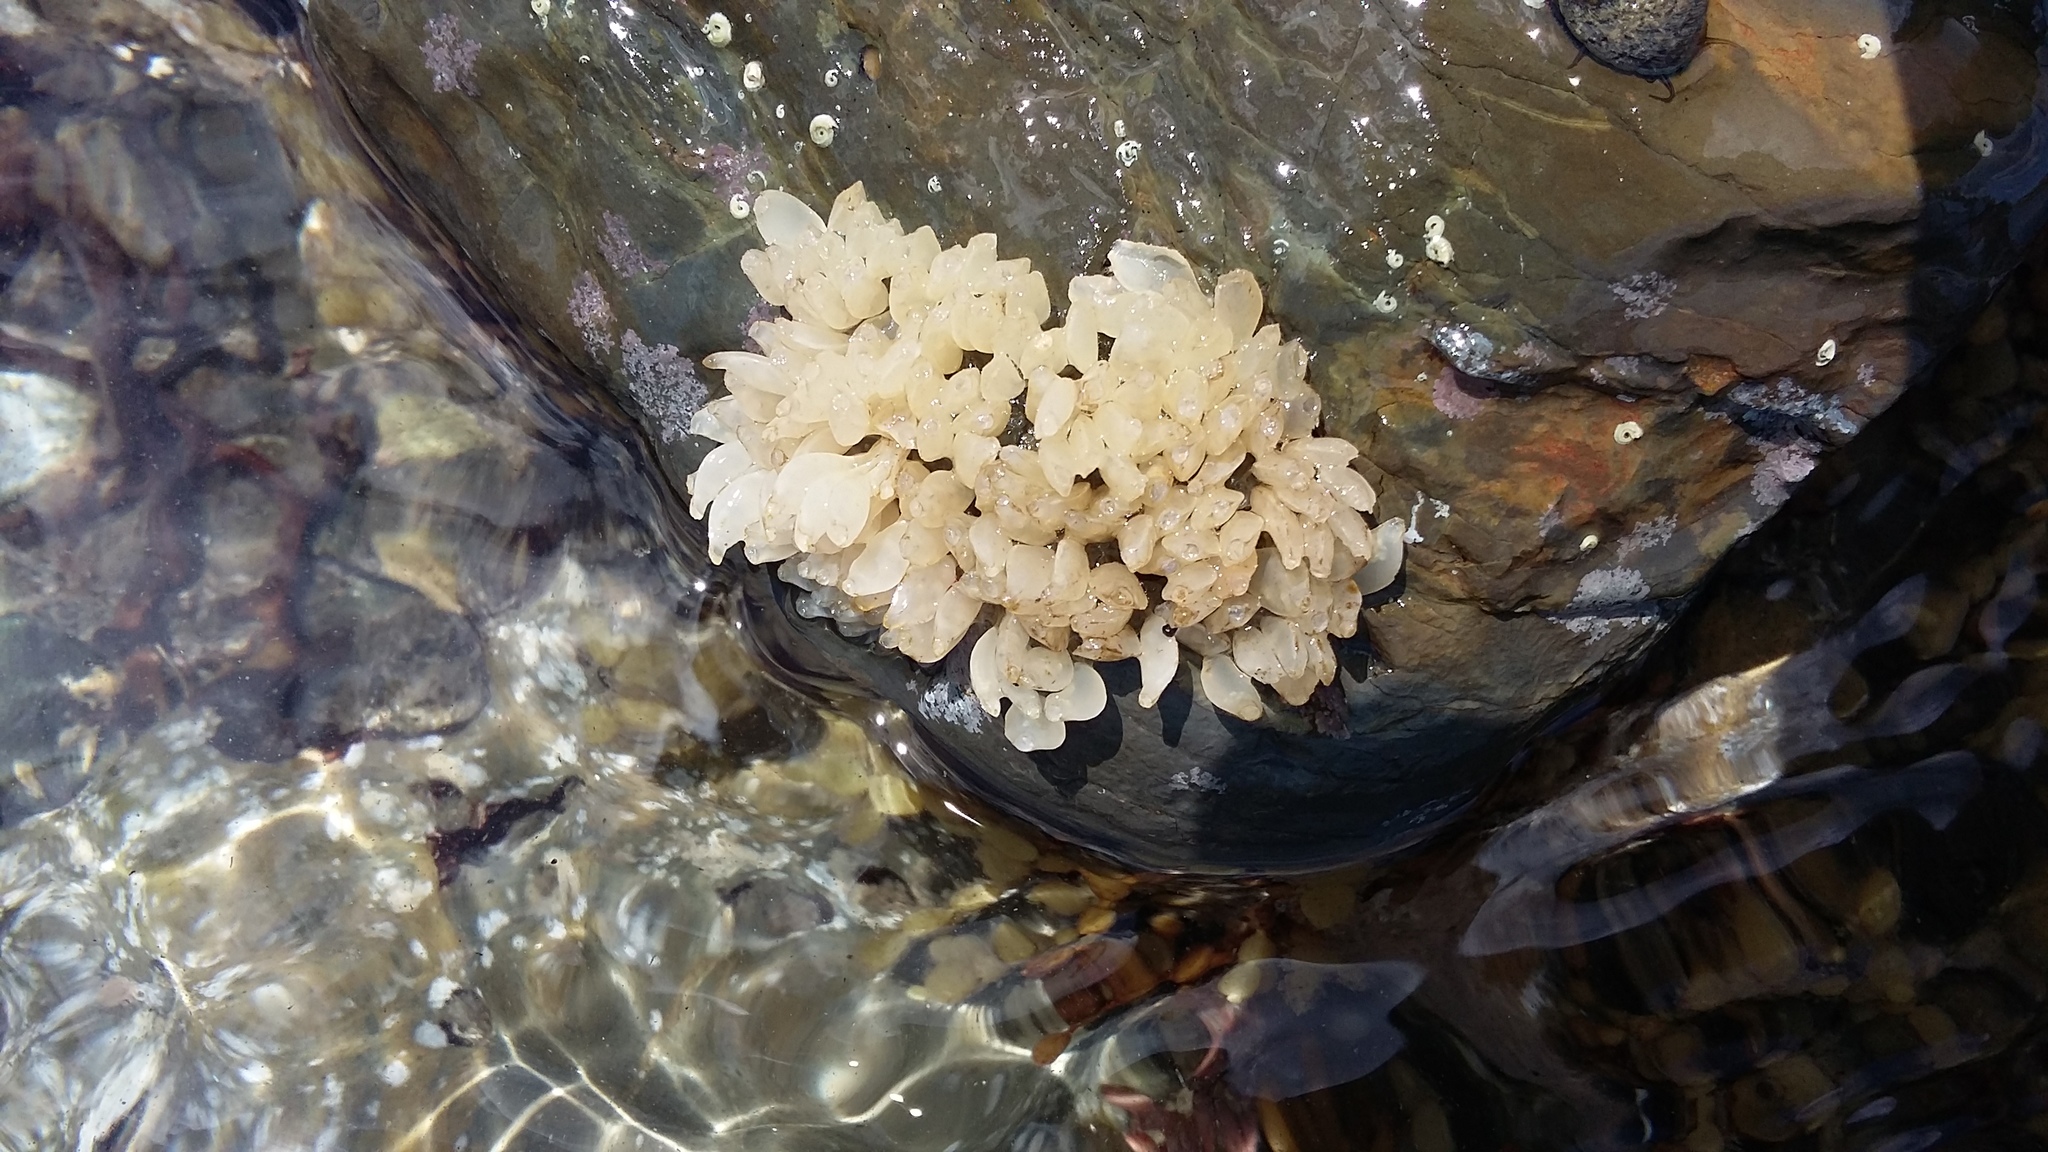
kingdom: Animalia
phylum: Mollusca
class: Gastropoda
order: Neogastropoda
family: Cominellidae
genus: Cominella
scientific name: Cominella maculosa
